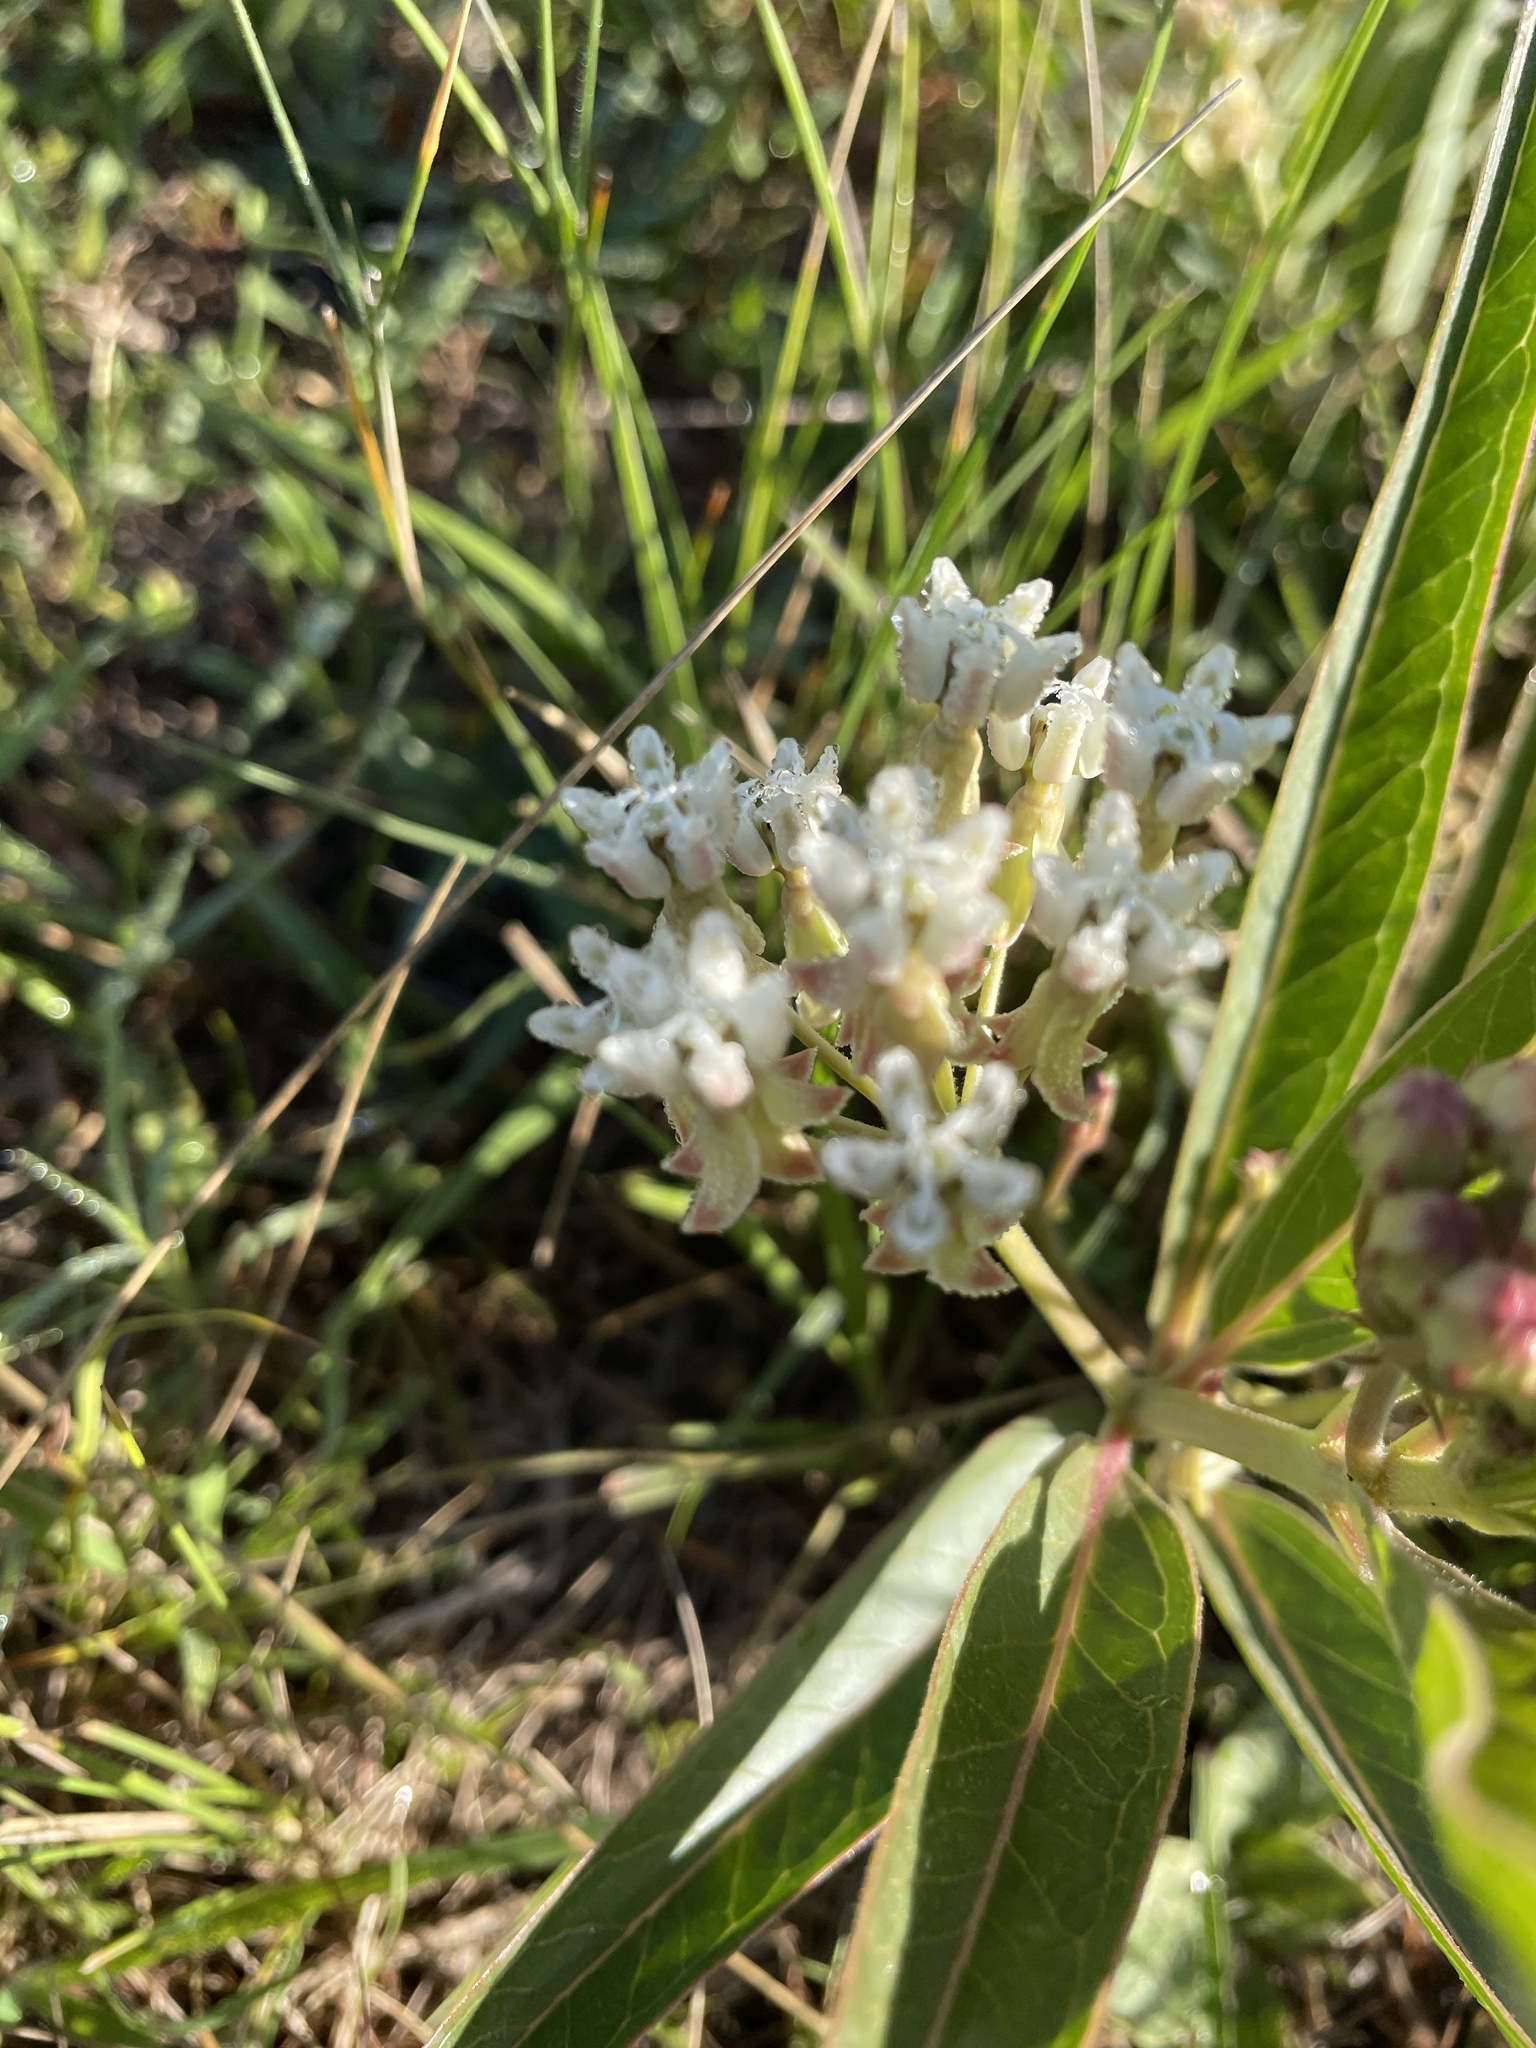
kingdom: Plantae
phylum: Tracheophyta
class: Magnoliopsida
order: Gentianales
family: Apocynaceae
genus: Asclepias
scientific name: Asclepias mellodora
